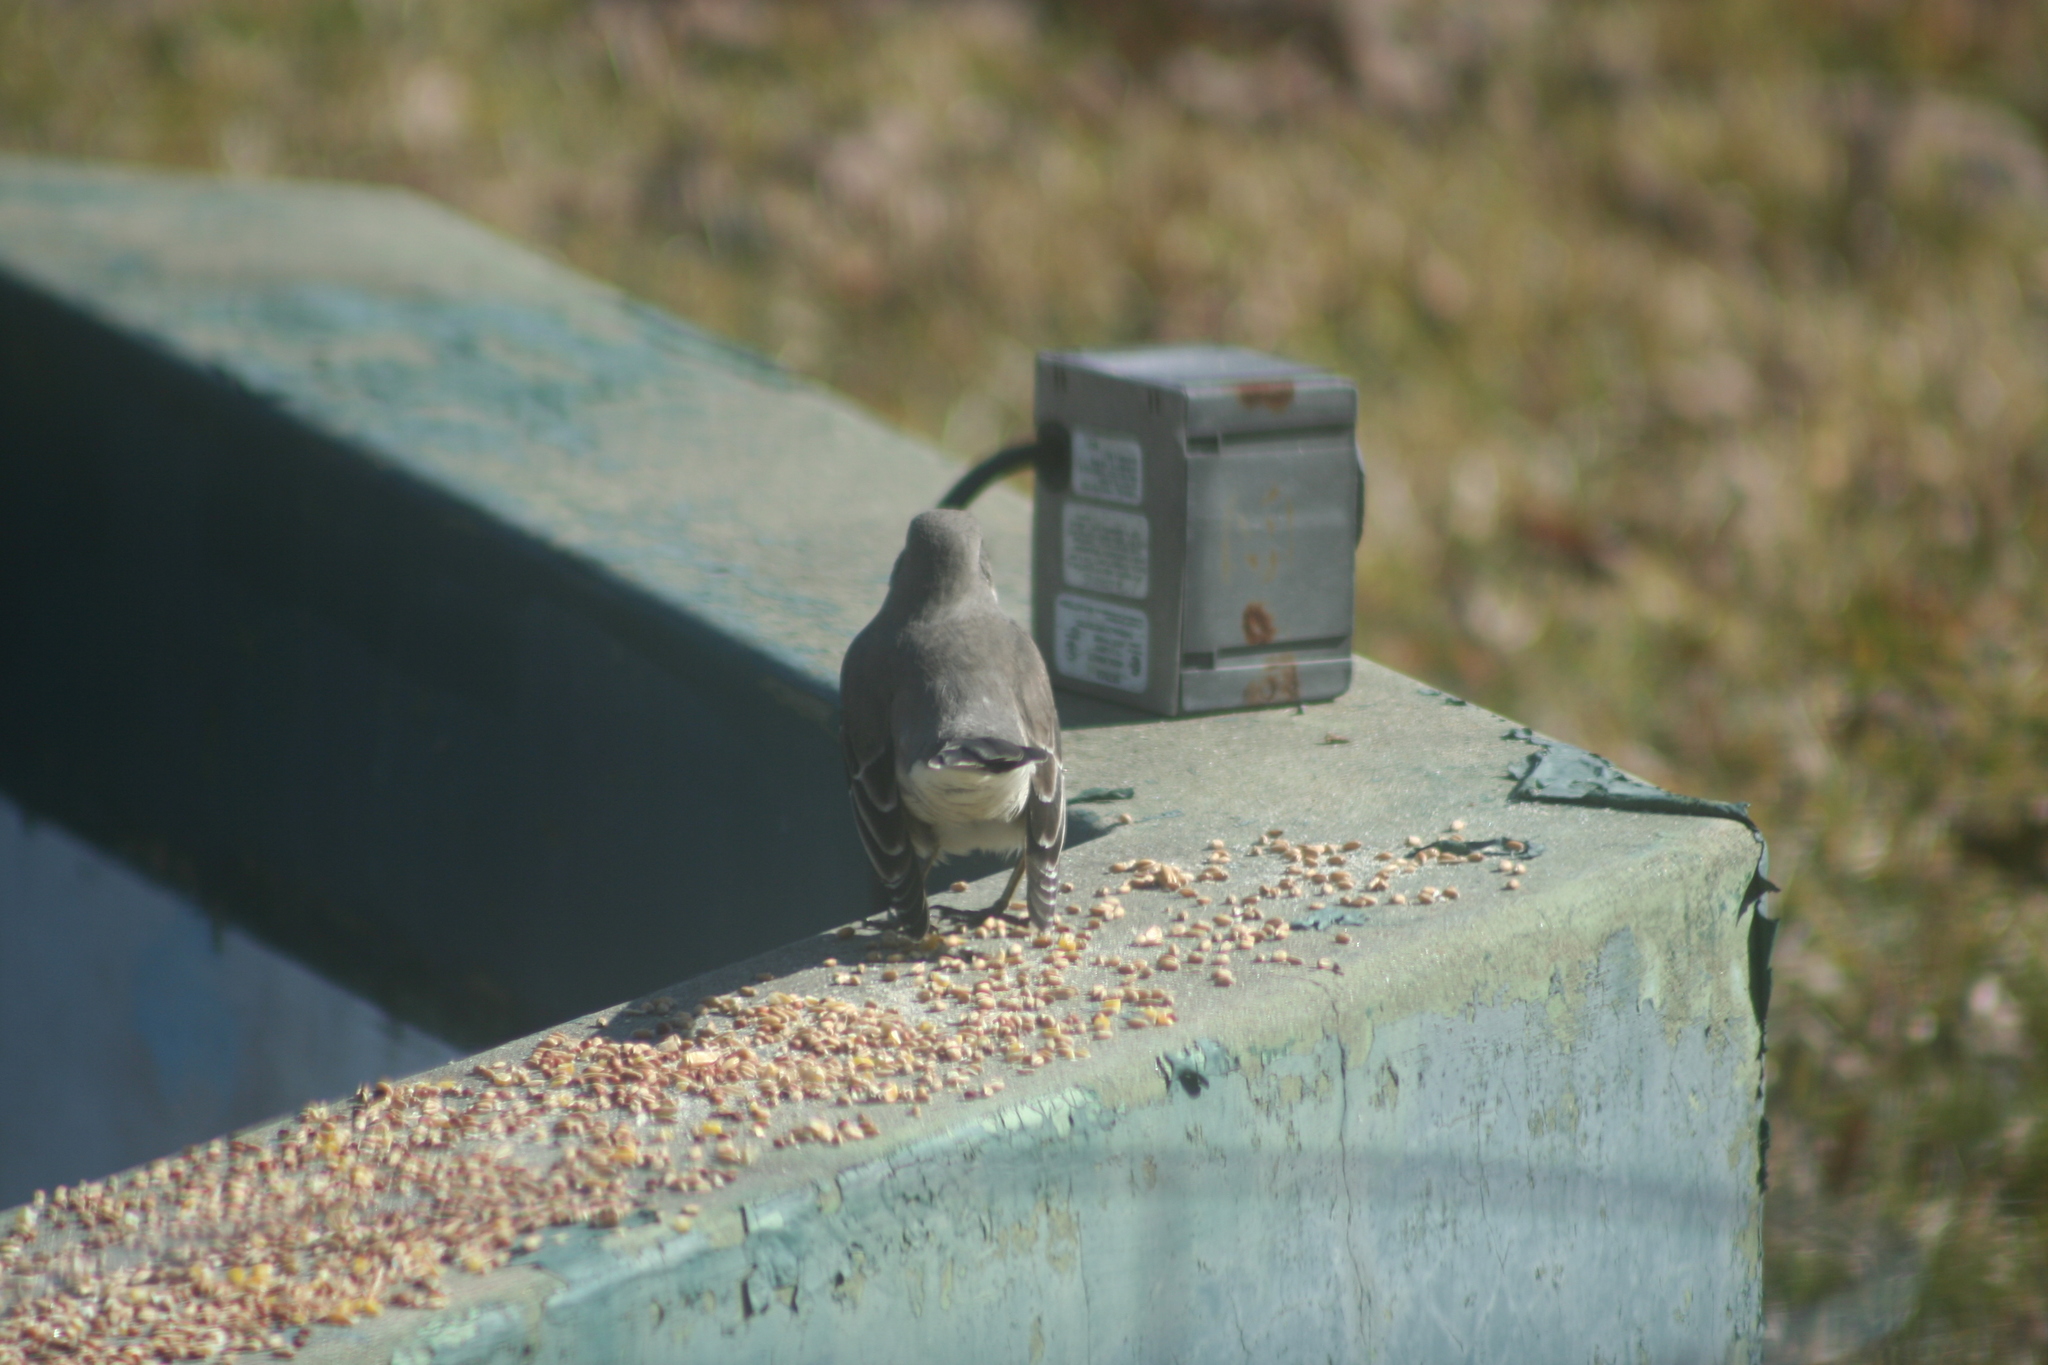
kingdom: Animalia
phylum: Chordata
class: Aves
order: Passeriformes
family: Mimidae
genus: Mimus
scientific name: Mimus polyglottos
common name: Northern mockingbird
